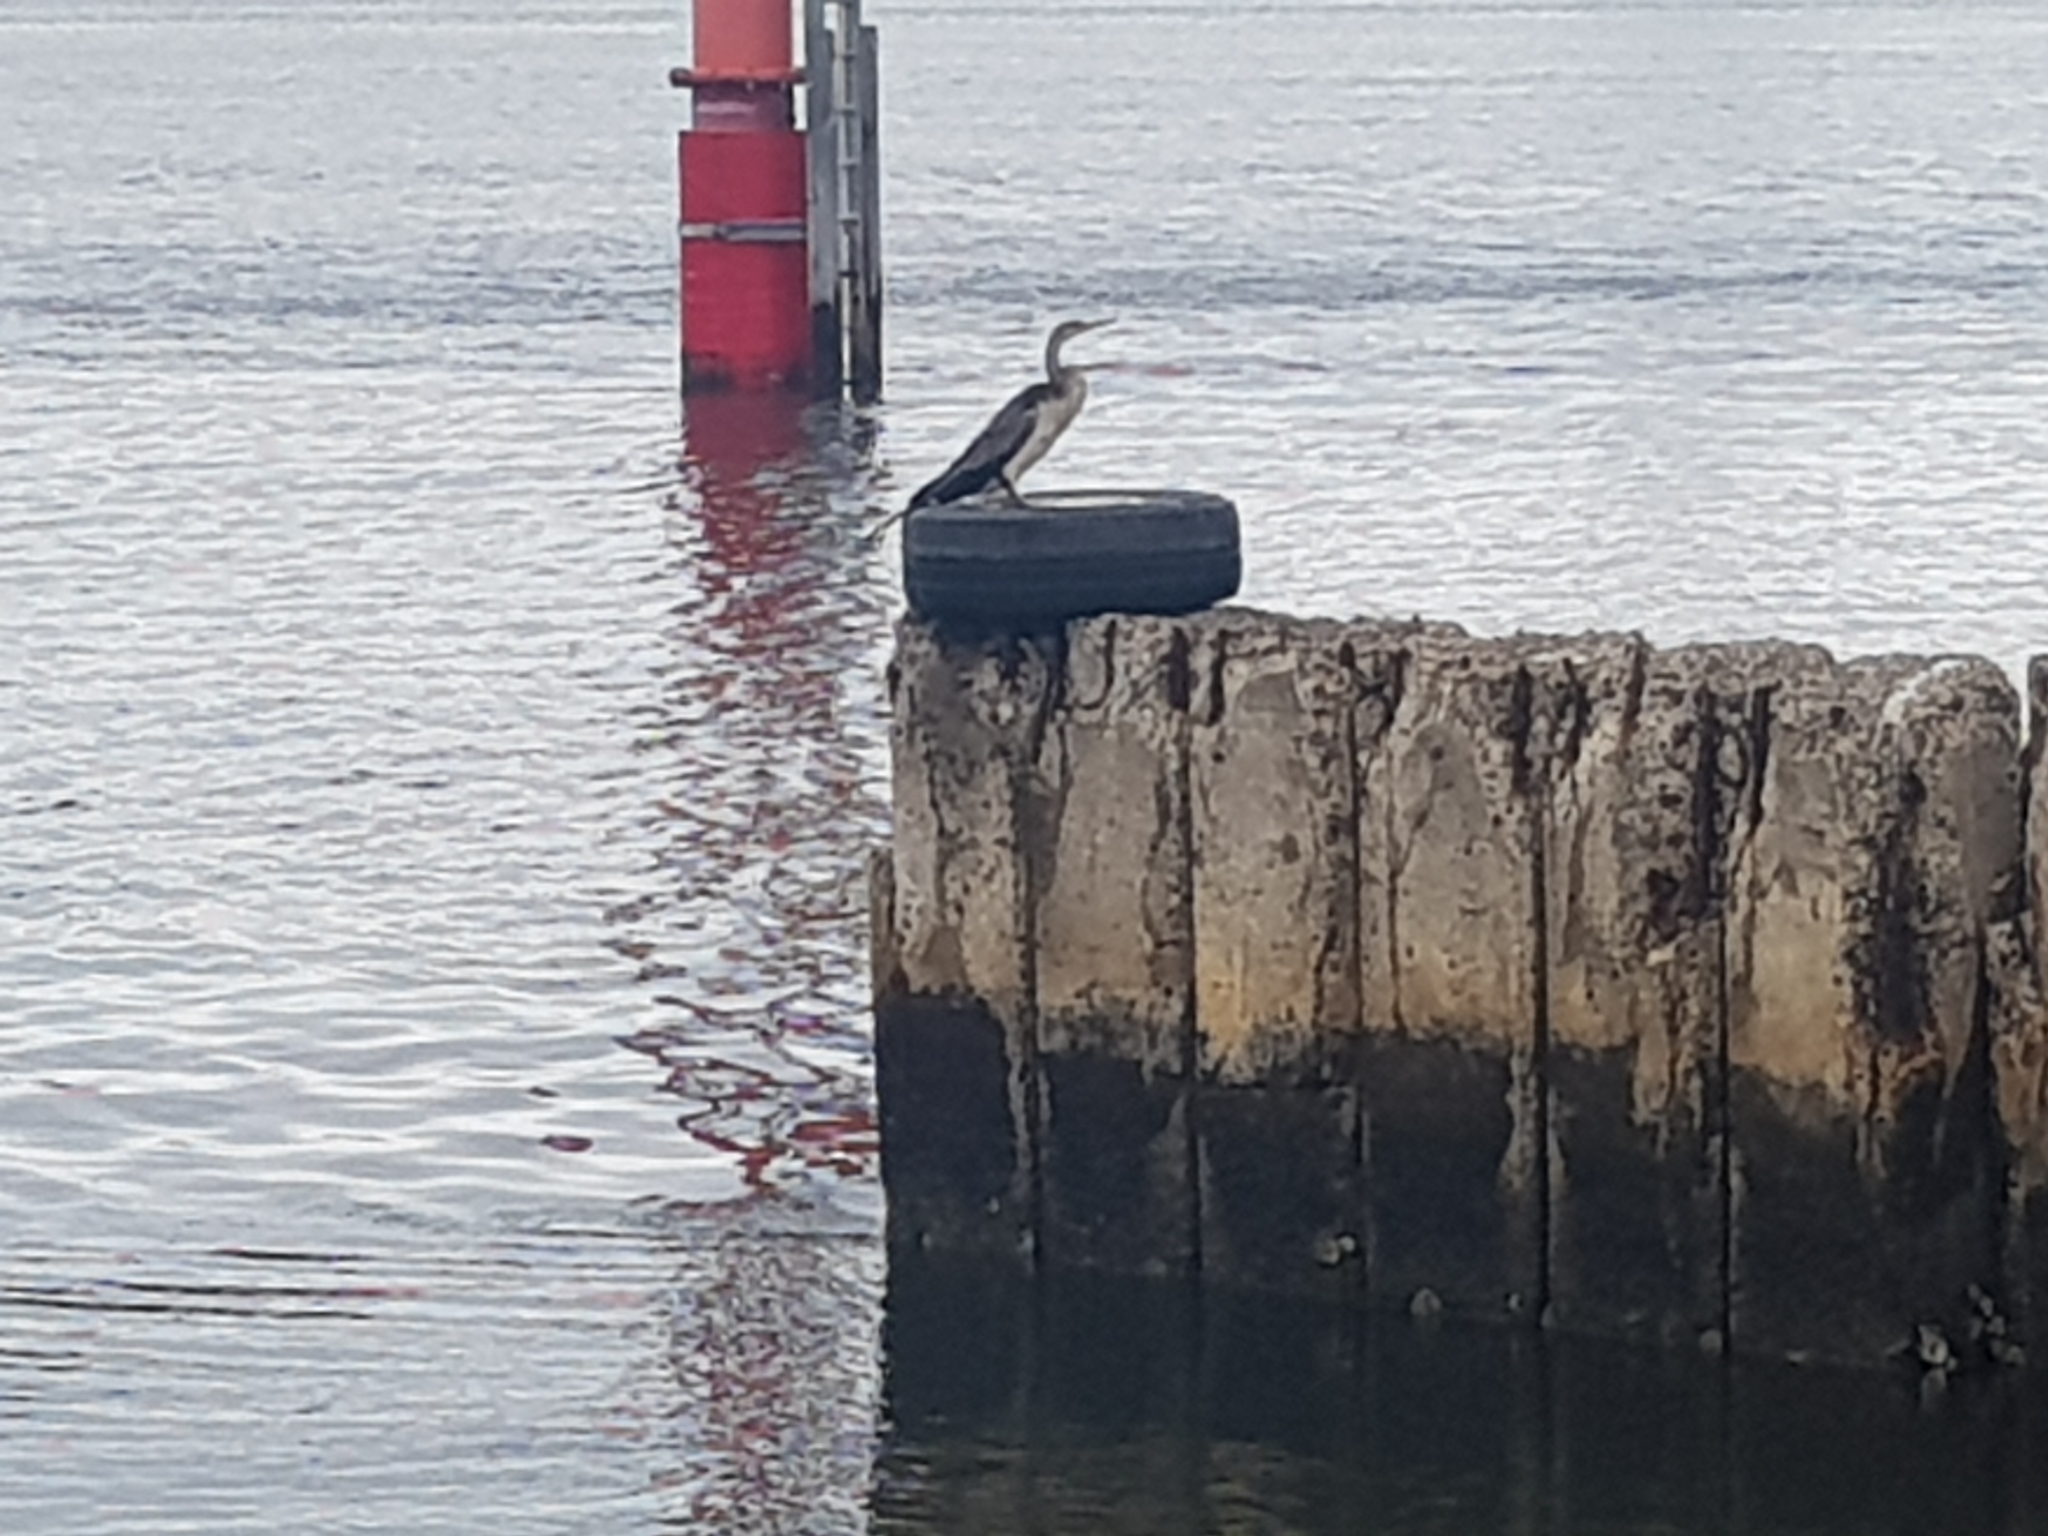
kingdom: Animalia
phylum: Chordata
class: Aves
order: Suliformes
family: Anhingidae
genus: Anhinga
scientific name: Anhinga novaehollandiae
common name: Australasian darter
